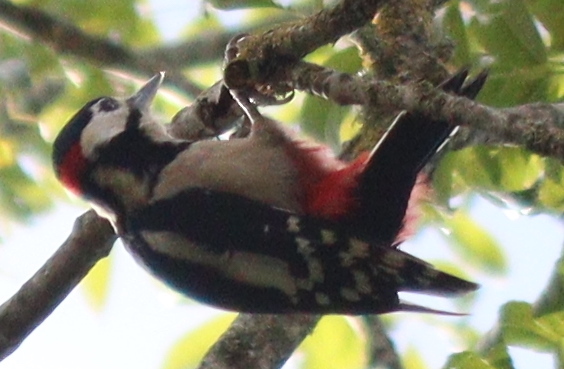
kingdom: Animalia
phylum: Chordata
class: Aves
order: Piciformes
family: Picidae
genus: Dendrocopos
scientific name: Dendrocopos major
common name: Great spotted woodpecker
